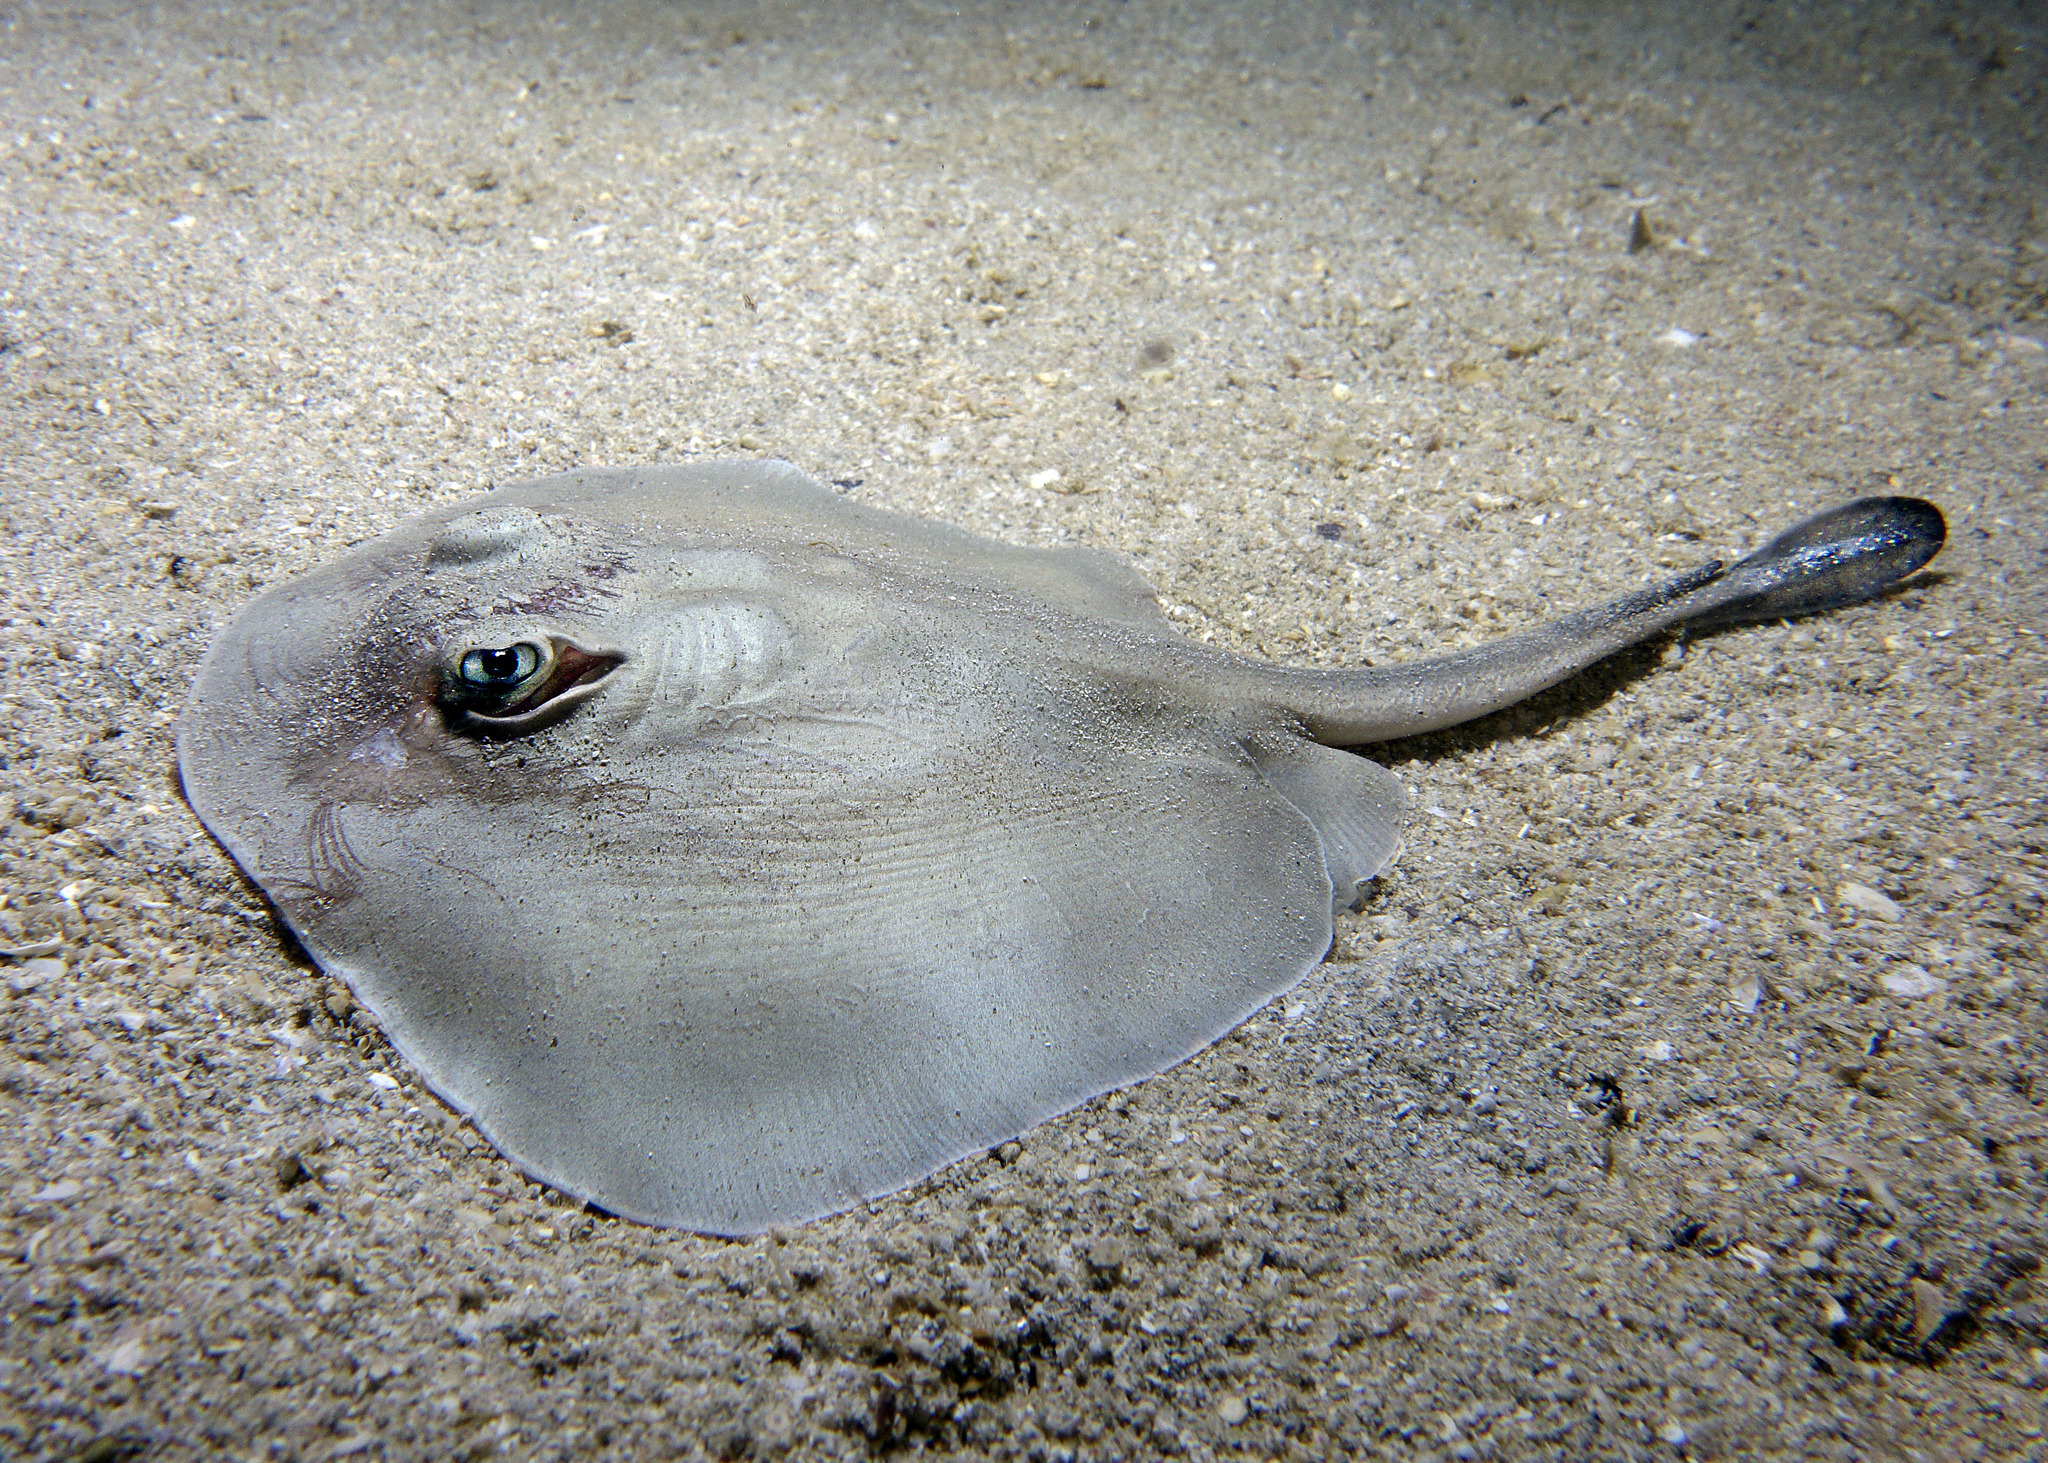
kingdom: Animalia
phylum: Chordata
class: Elasmobranchii
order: Myliobatiformes
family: Urolophidae
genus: Trygonoptera
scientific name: Trygonoptera mucosa
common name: Western shovelnose stingaree
